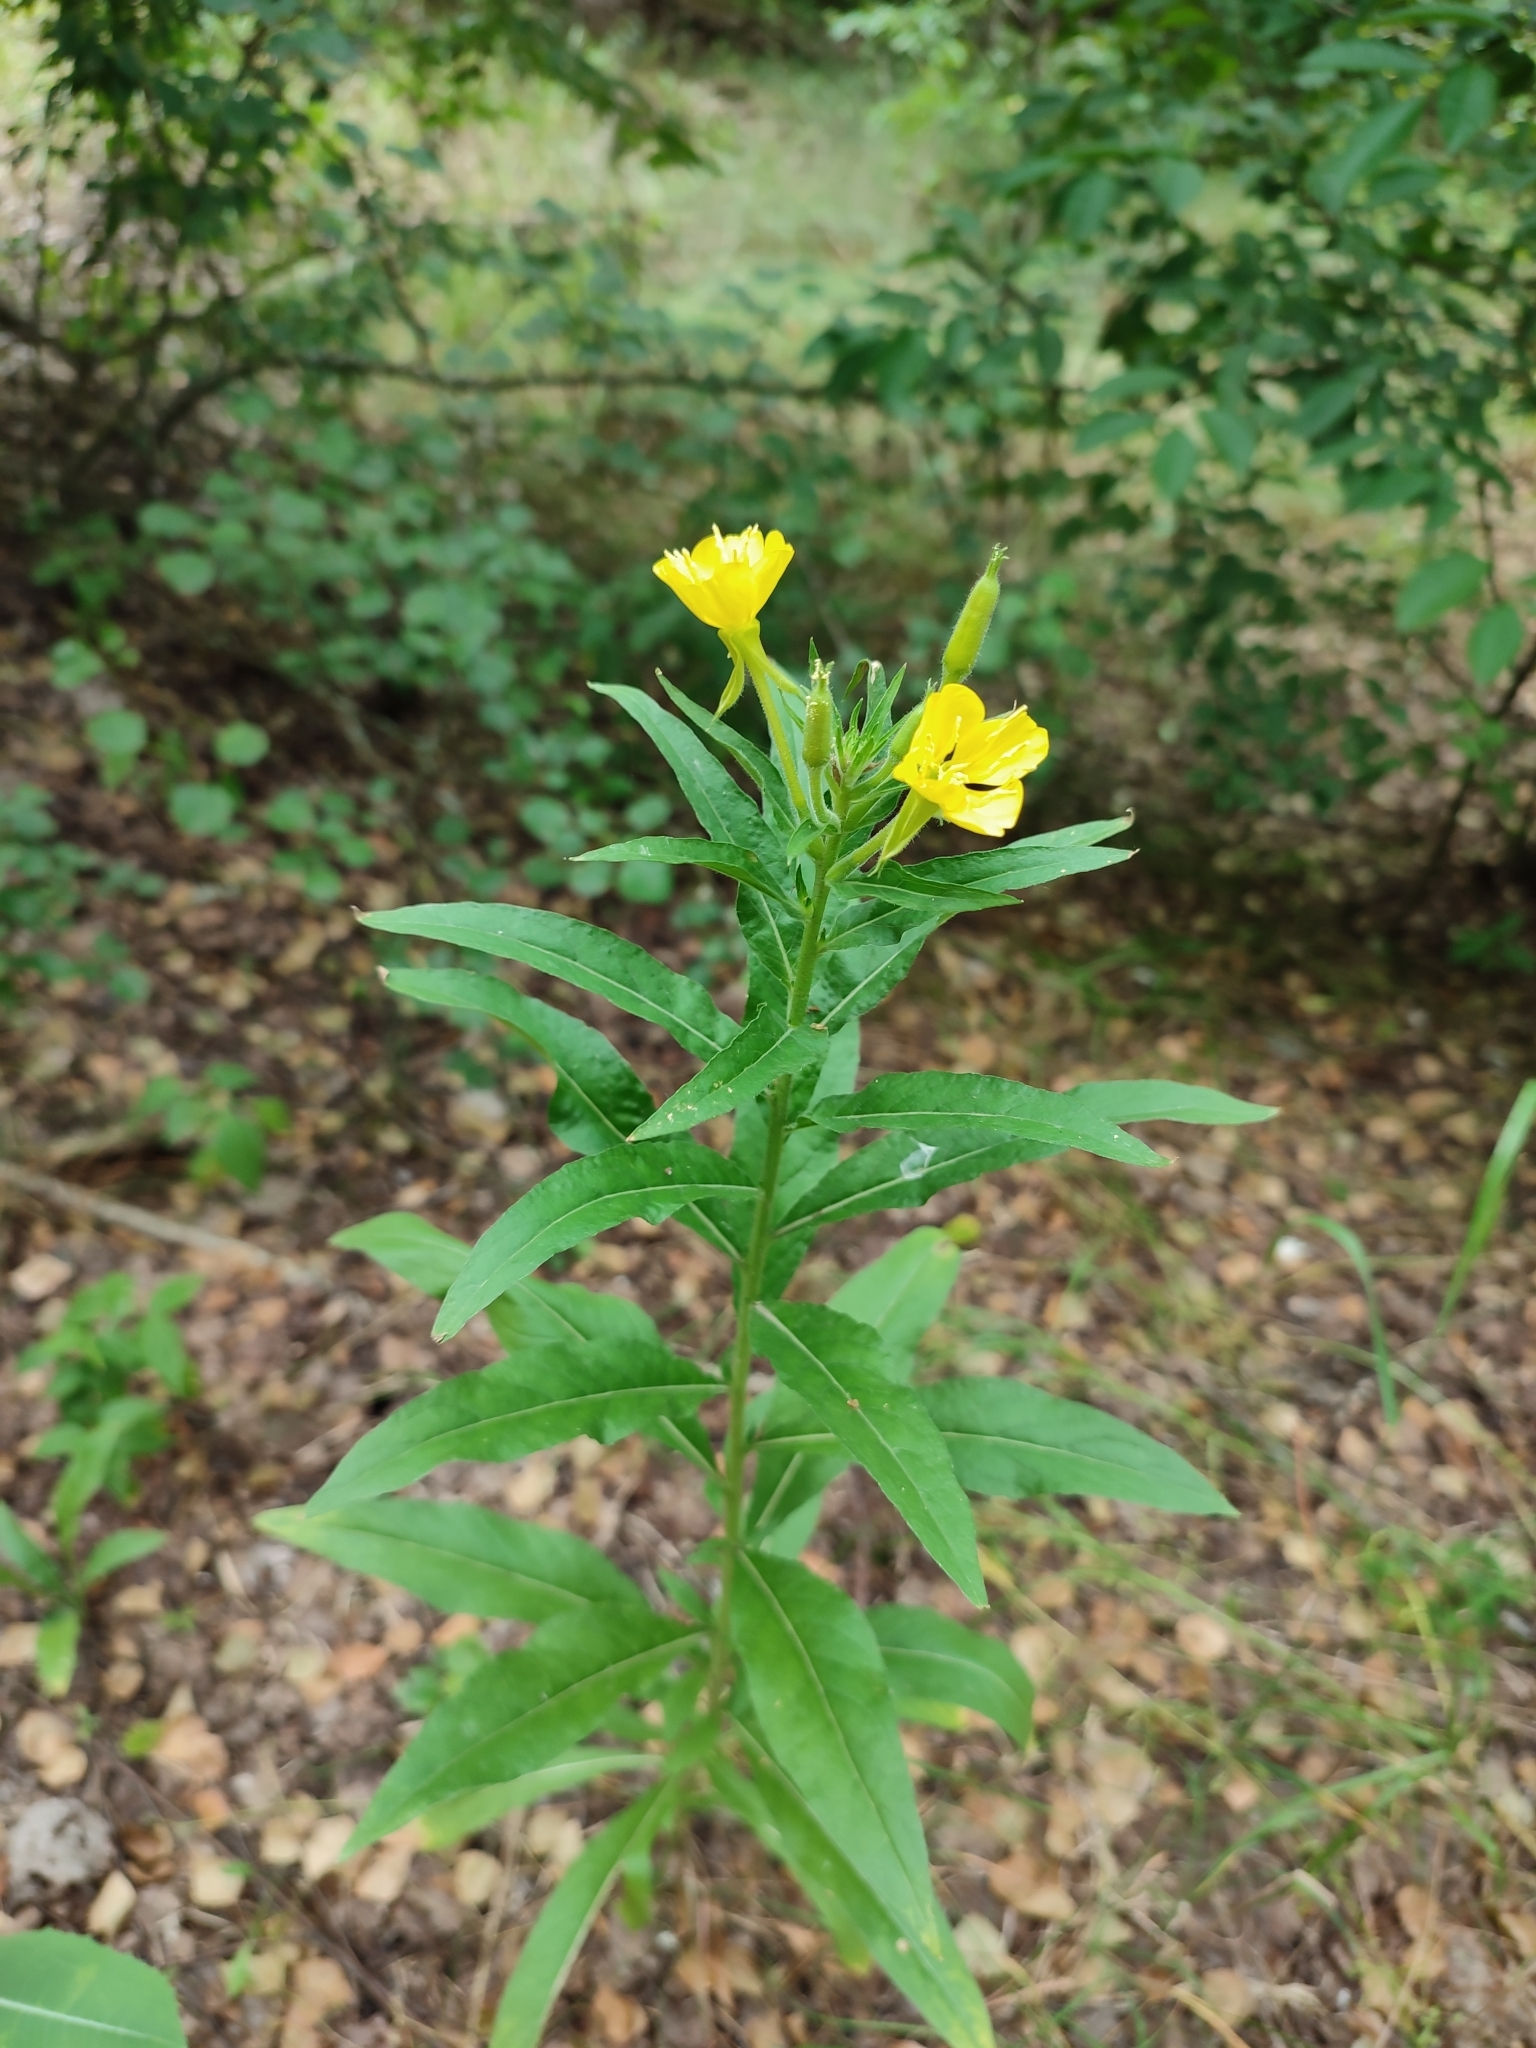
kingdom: Plantae
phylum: Tracheophyta
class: Magnoliopsida
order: Myrtales
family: Onagraceae
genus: Oenothera
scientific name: Oenothera biennis
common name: Common evening-primrose
